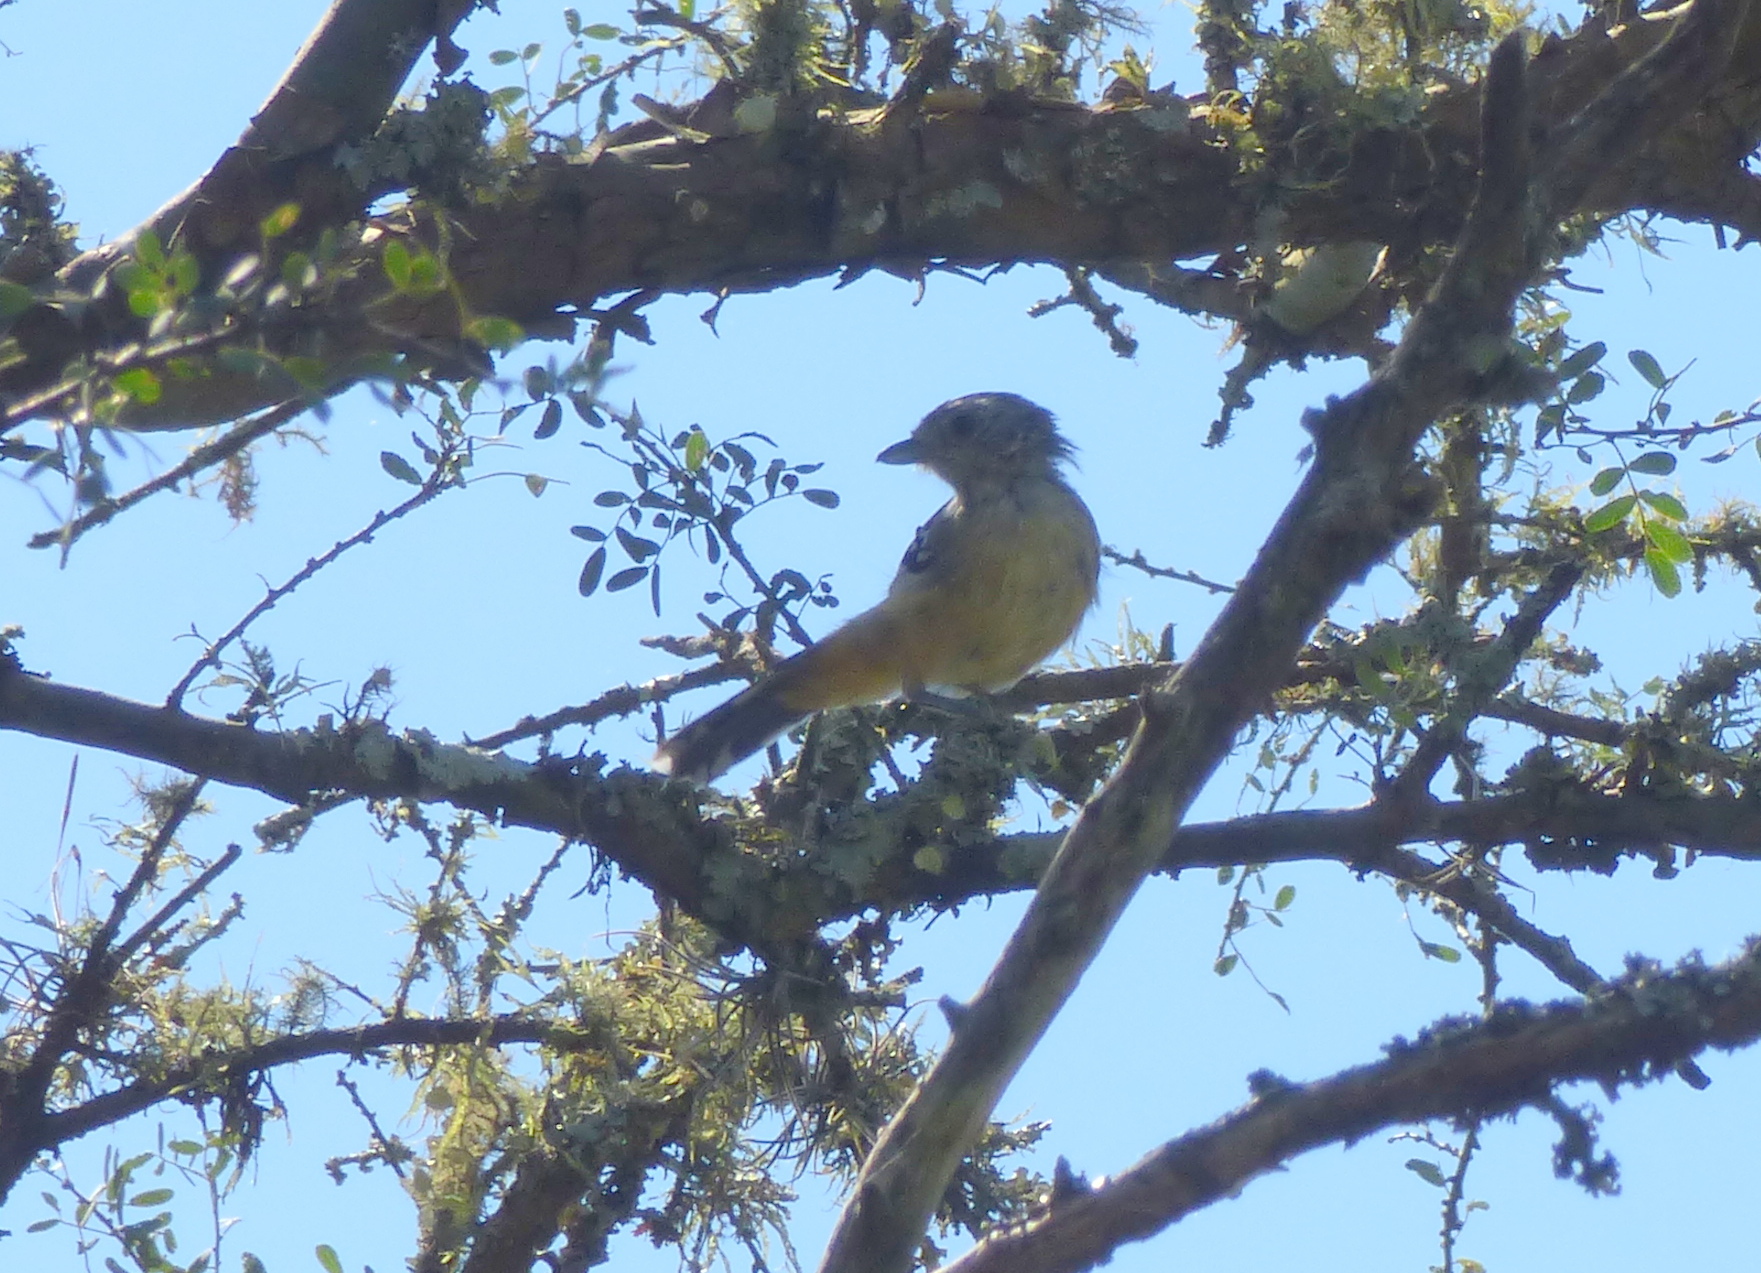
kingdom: Animalia
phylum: Chordata
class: Aves
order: Passeriformes
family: Thamnophilidae
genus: Thamnophilus
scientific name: Thamnophilus caerulescens
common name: Variable antshrike
